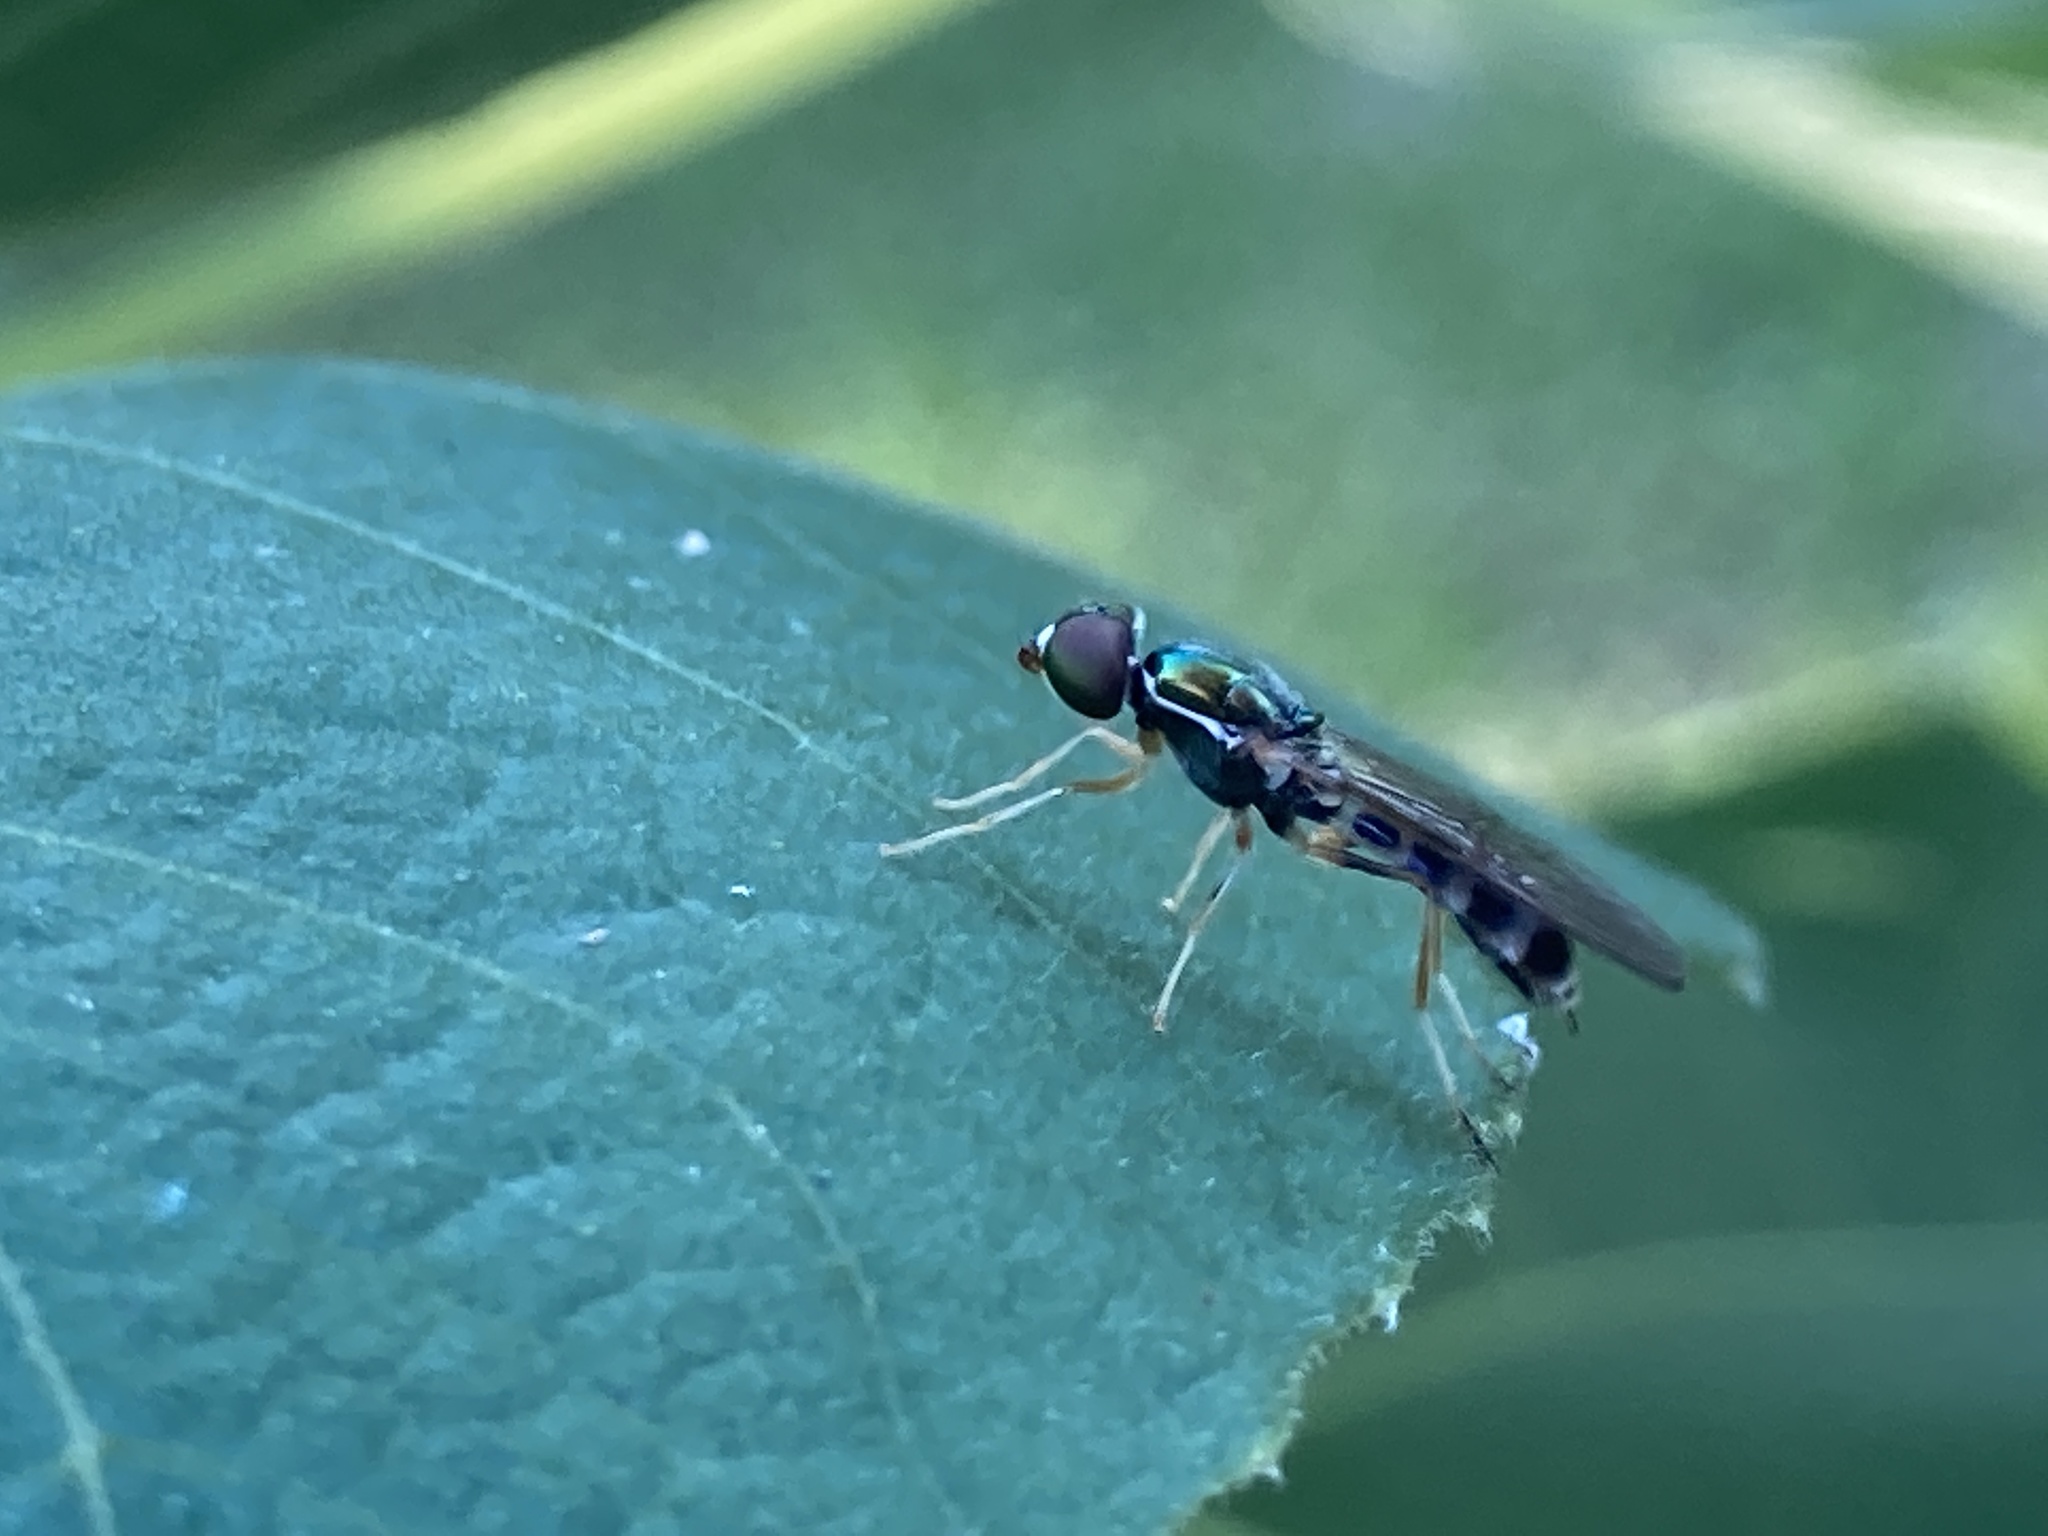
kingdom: Animalia
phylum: Arthropoda
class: Insecta
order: Diptera
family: Stratiomyidae
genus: Sargus
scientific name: Sargus fasciatus
